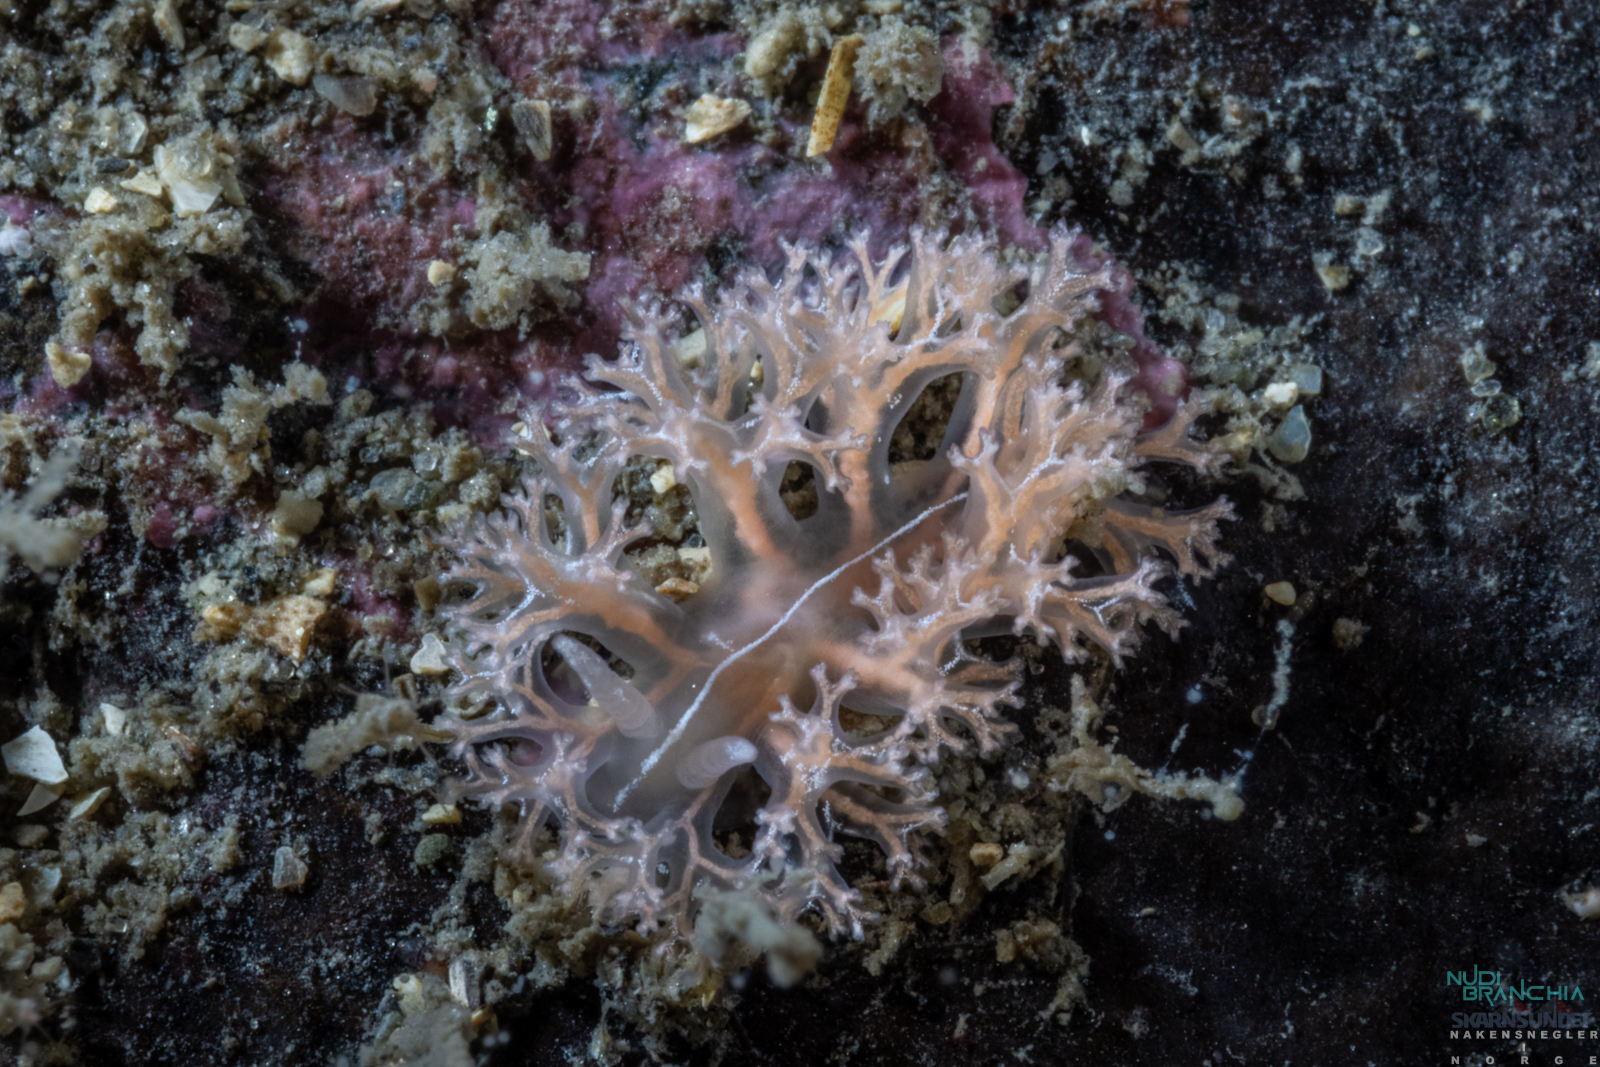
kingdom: Animalia
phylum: Mollusca
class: Gastropoda
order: Nudibranchia
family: Heroidae
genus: Hero
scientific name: Hero formosa
